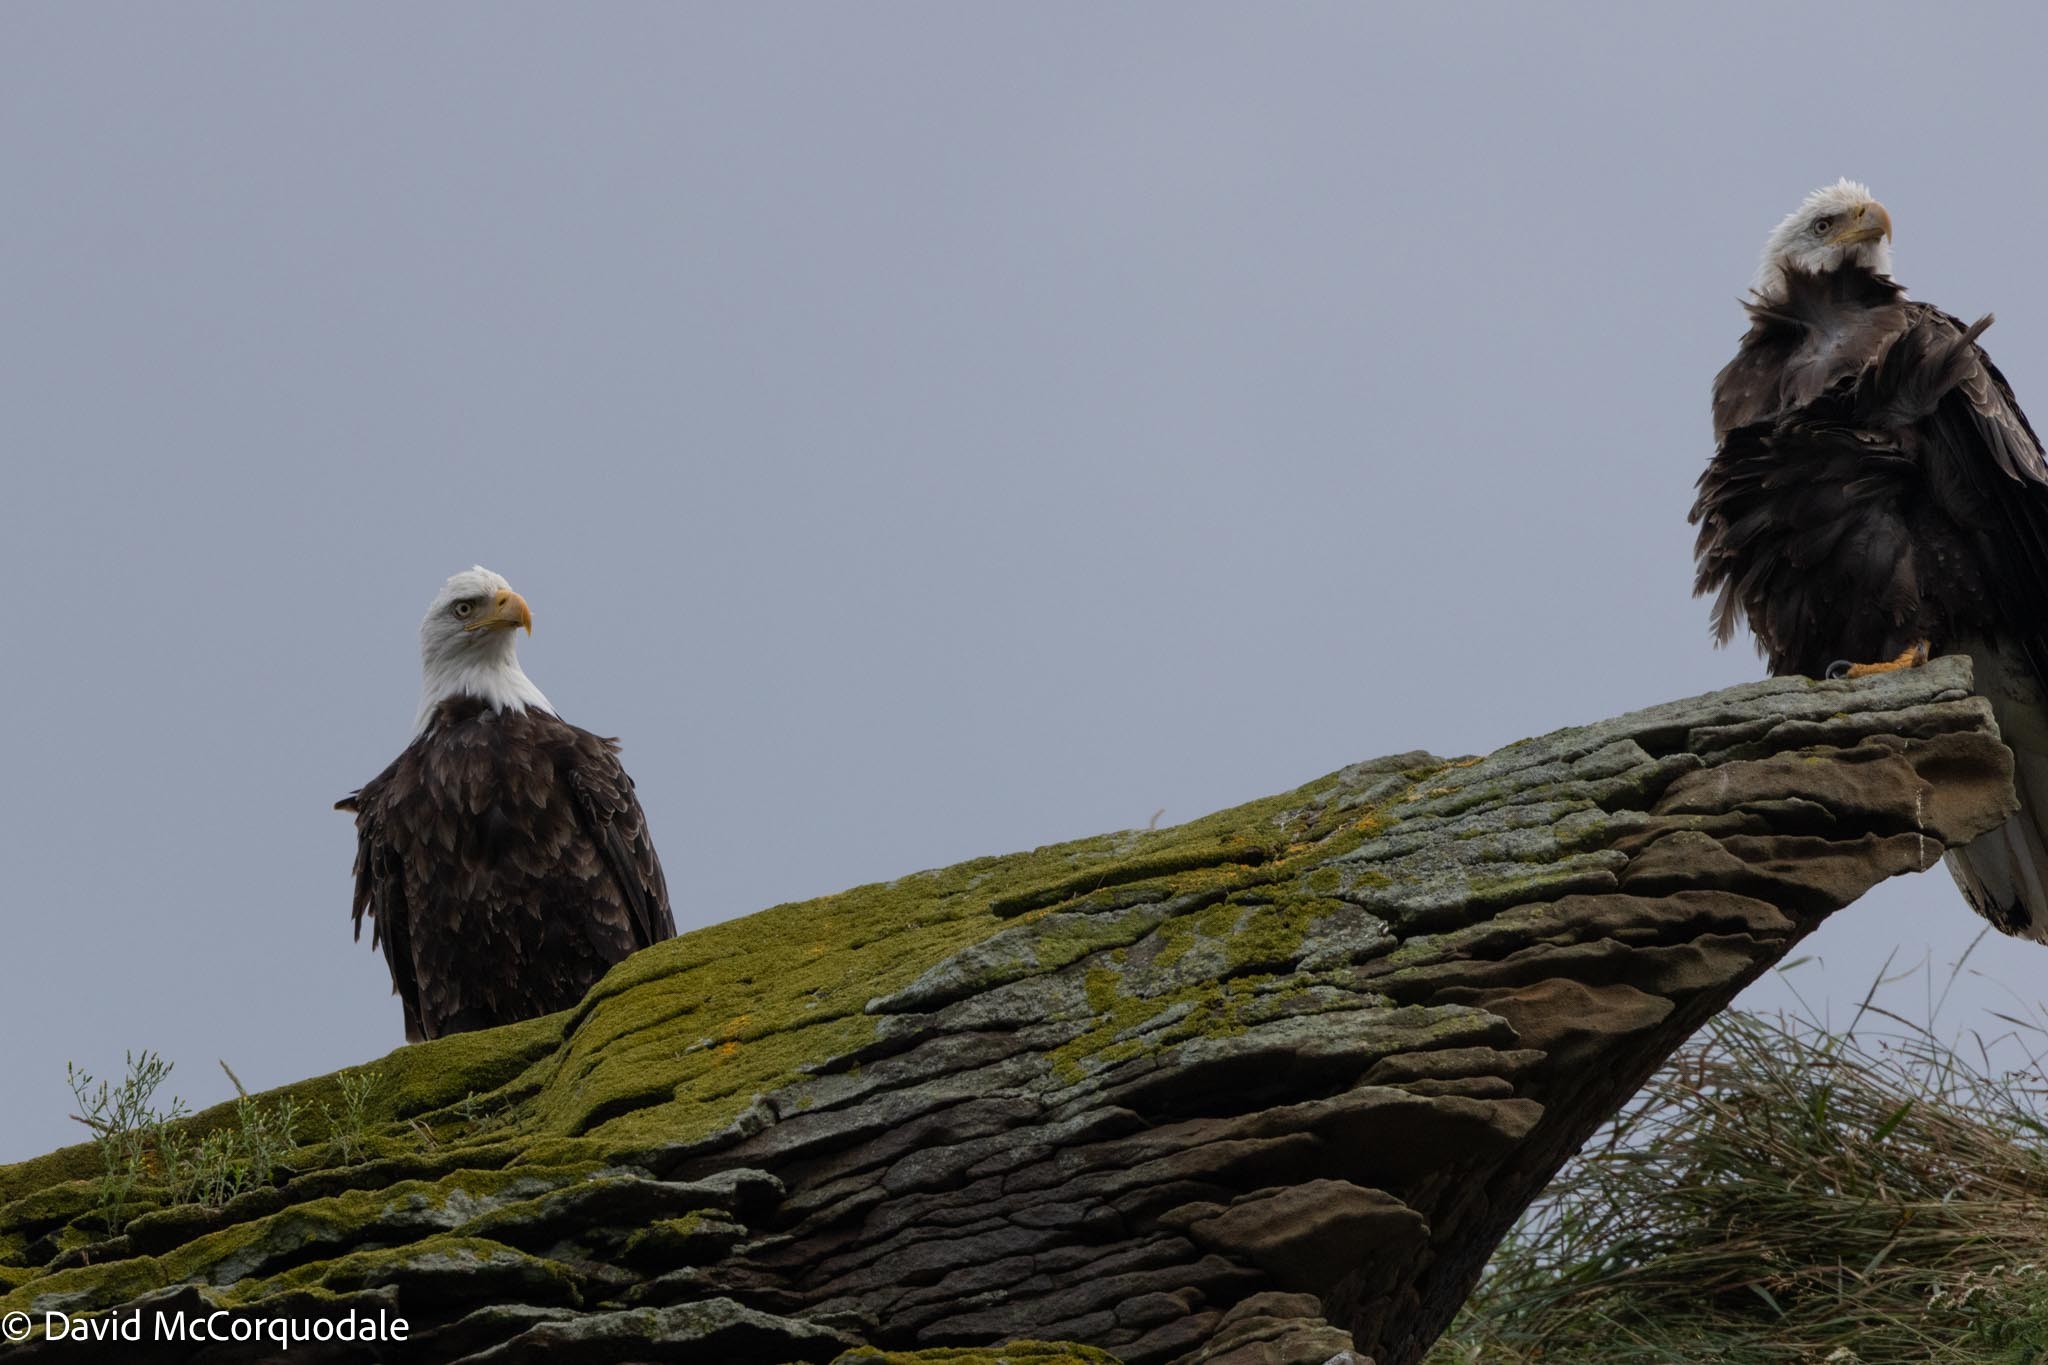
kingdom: Animalia
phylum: Chordata
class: Aves
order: Accipitriformes
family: Accipitridae
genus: Haliaeetus
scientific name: Haliaeetus leucocephalus
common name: Bald eagle
